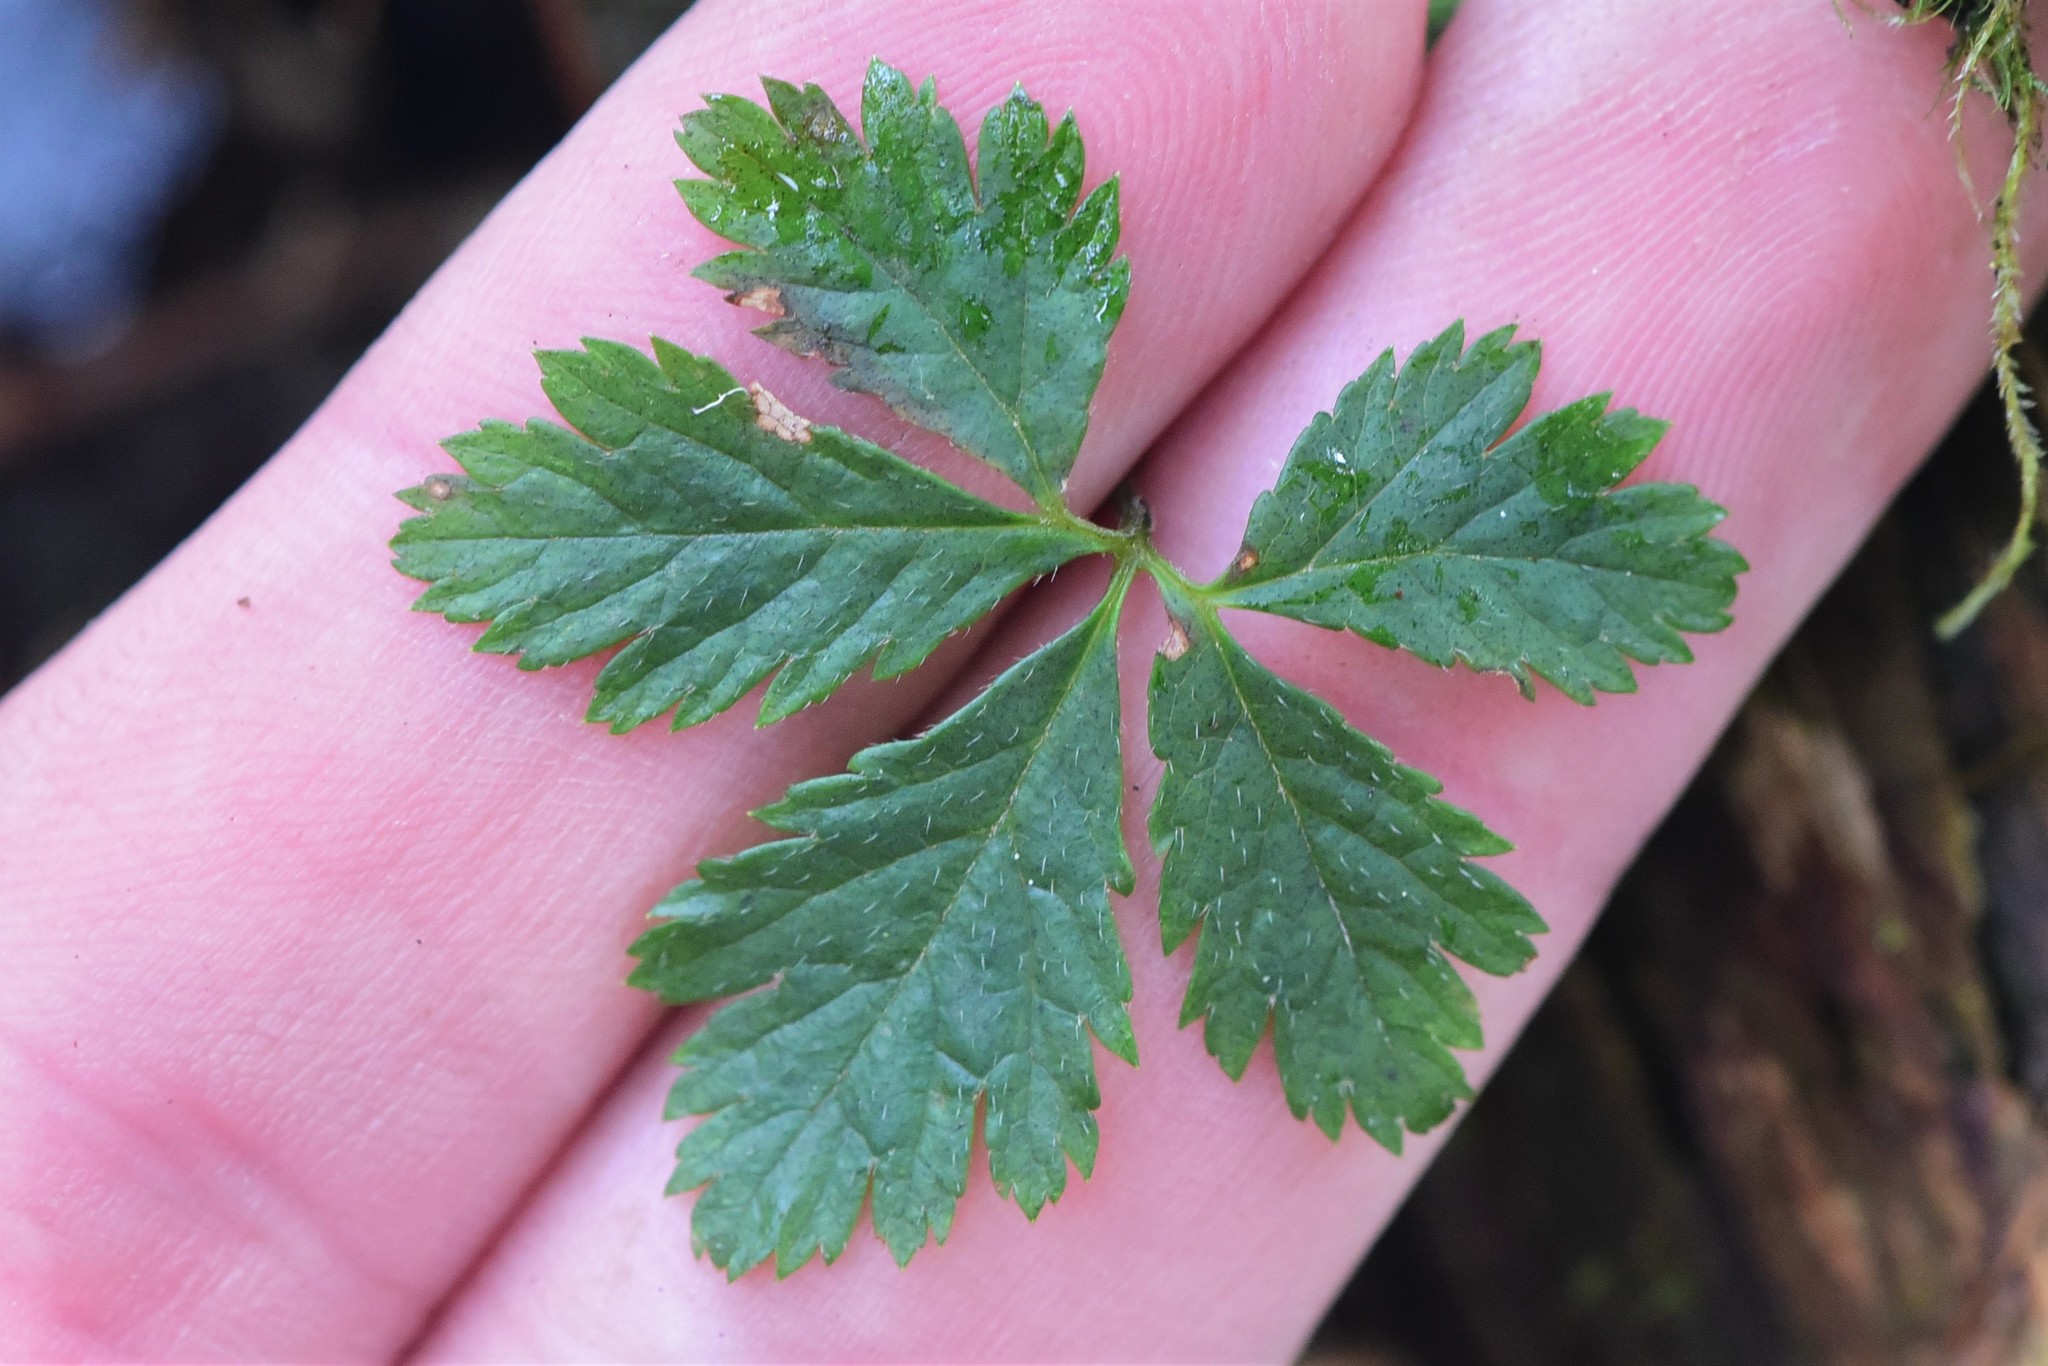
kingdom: Plantae
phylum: Tracheophyta
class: Magnoliopsida
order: Rosales
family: Rosaceae
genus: Rubus
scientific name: Rubus pedatus
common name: Creeping raspberry
